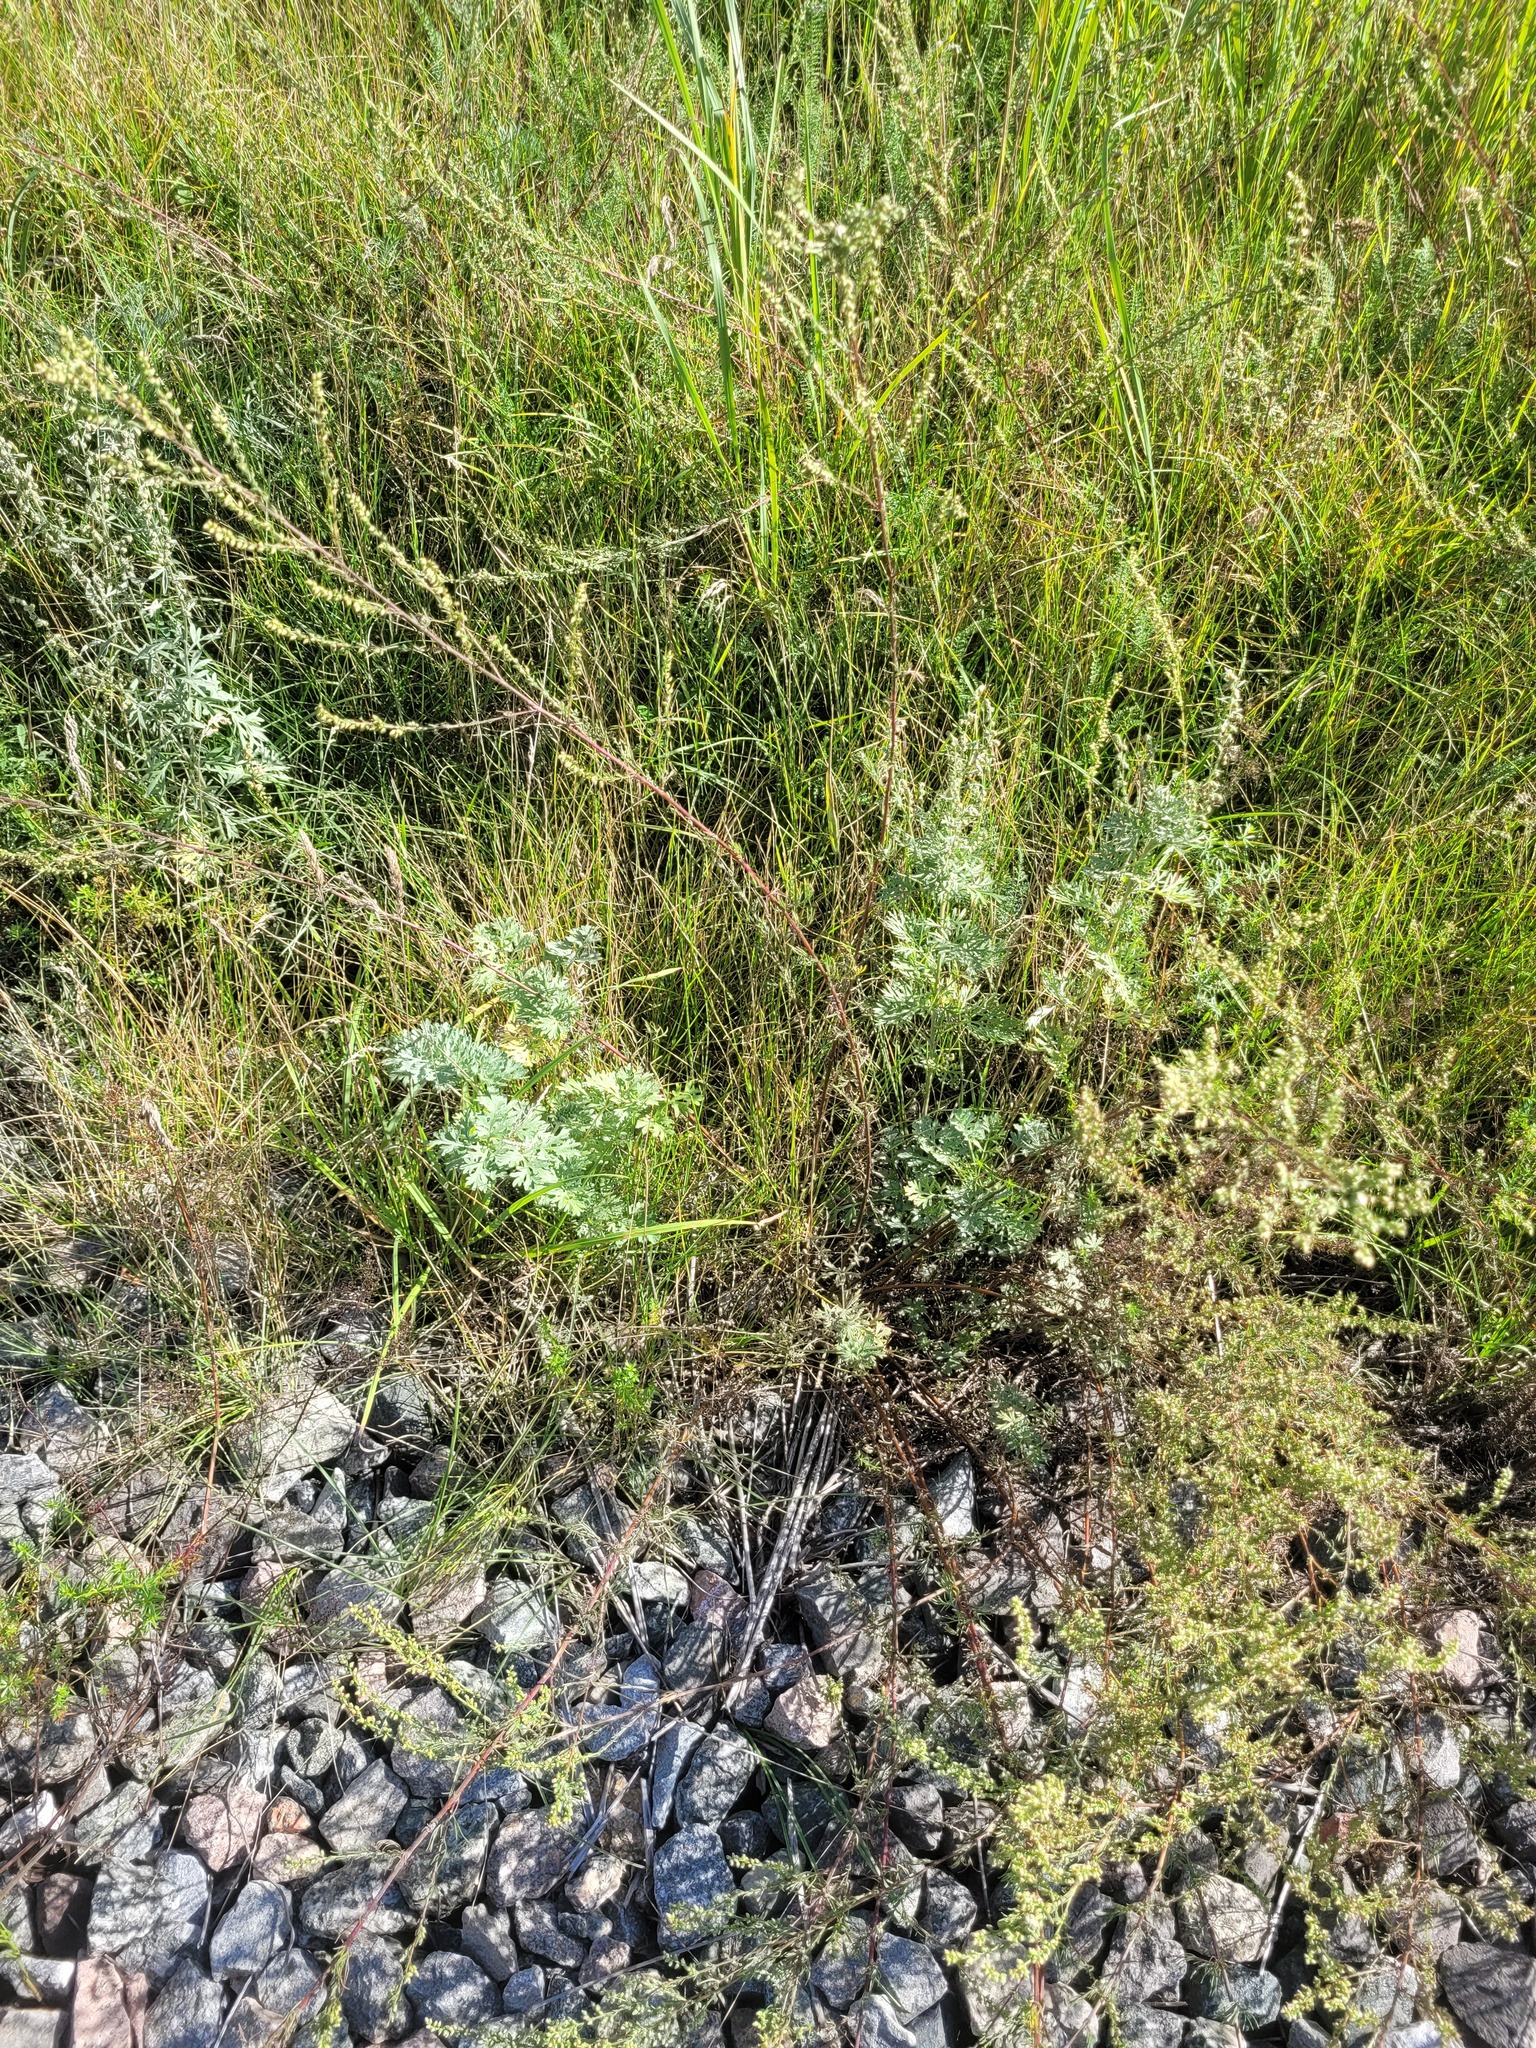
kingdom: Plantae
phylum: Tracheophyta
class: Magnoliopsida
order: Asterales
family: Asteraceae
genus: Artemisia
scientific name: Artemisia absinthium
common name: Wormwood
